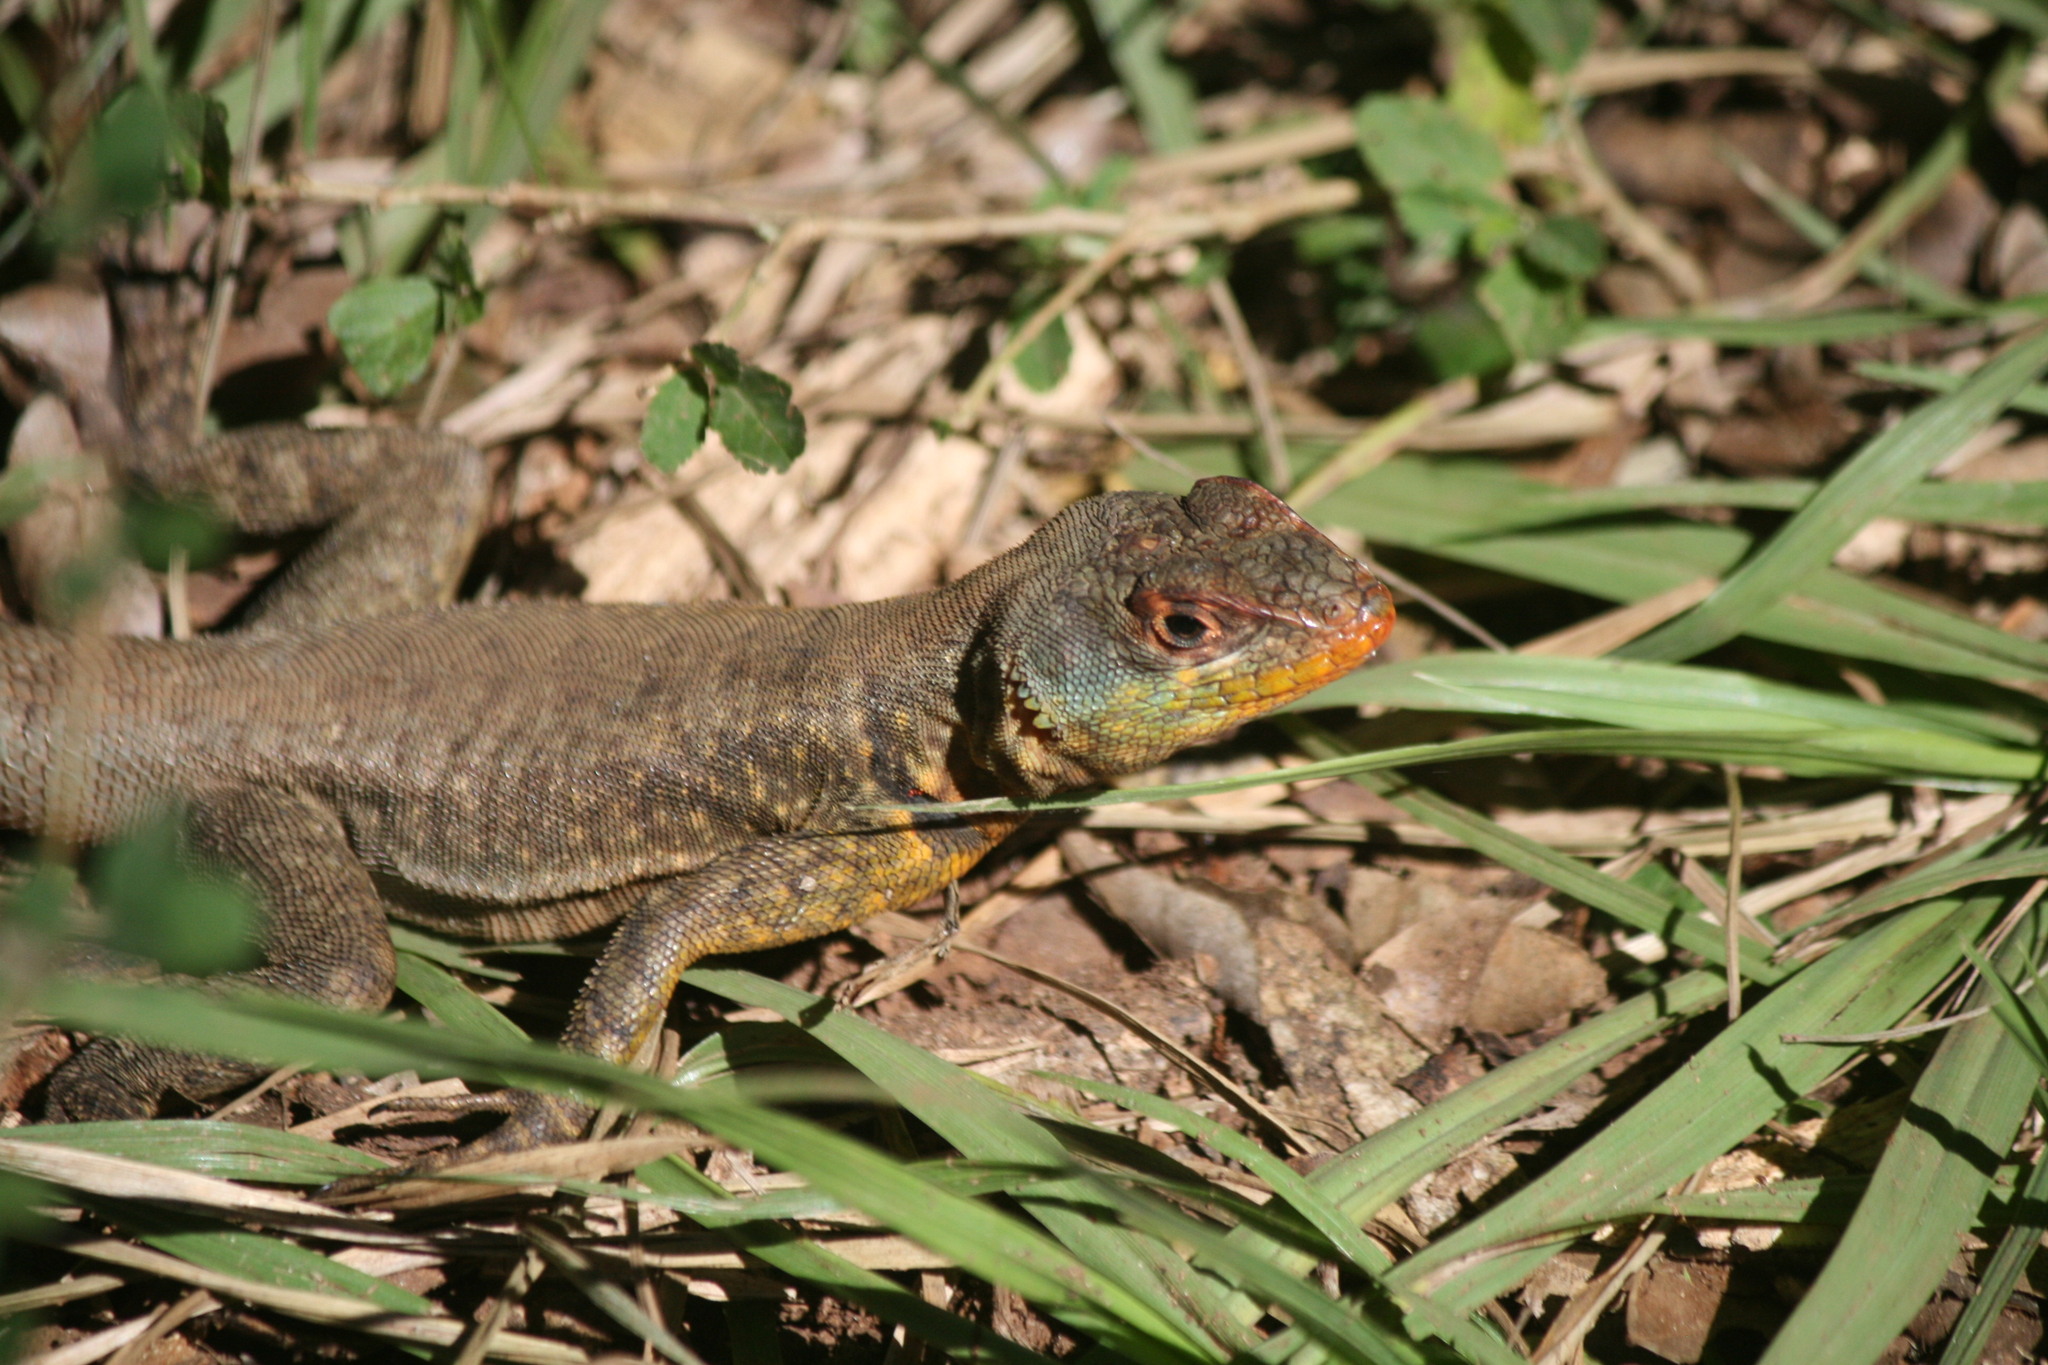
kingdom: Animalia
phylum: Chordata
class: Squamata
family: Tropiduridae
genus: Tropidurus
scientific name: Tropidurus catalanensis
